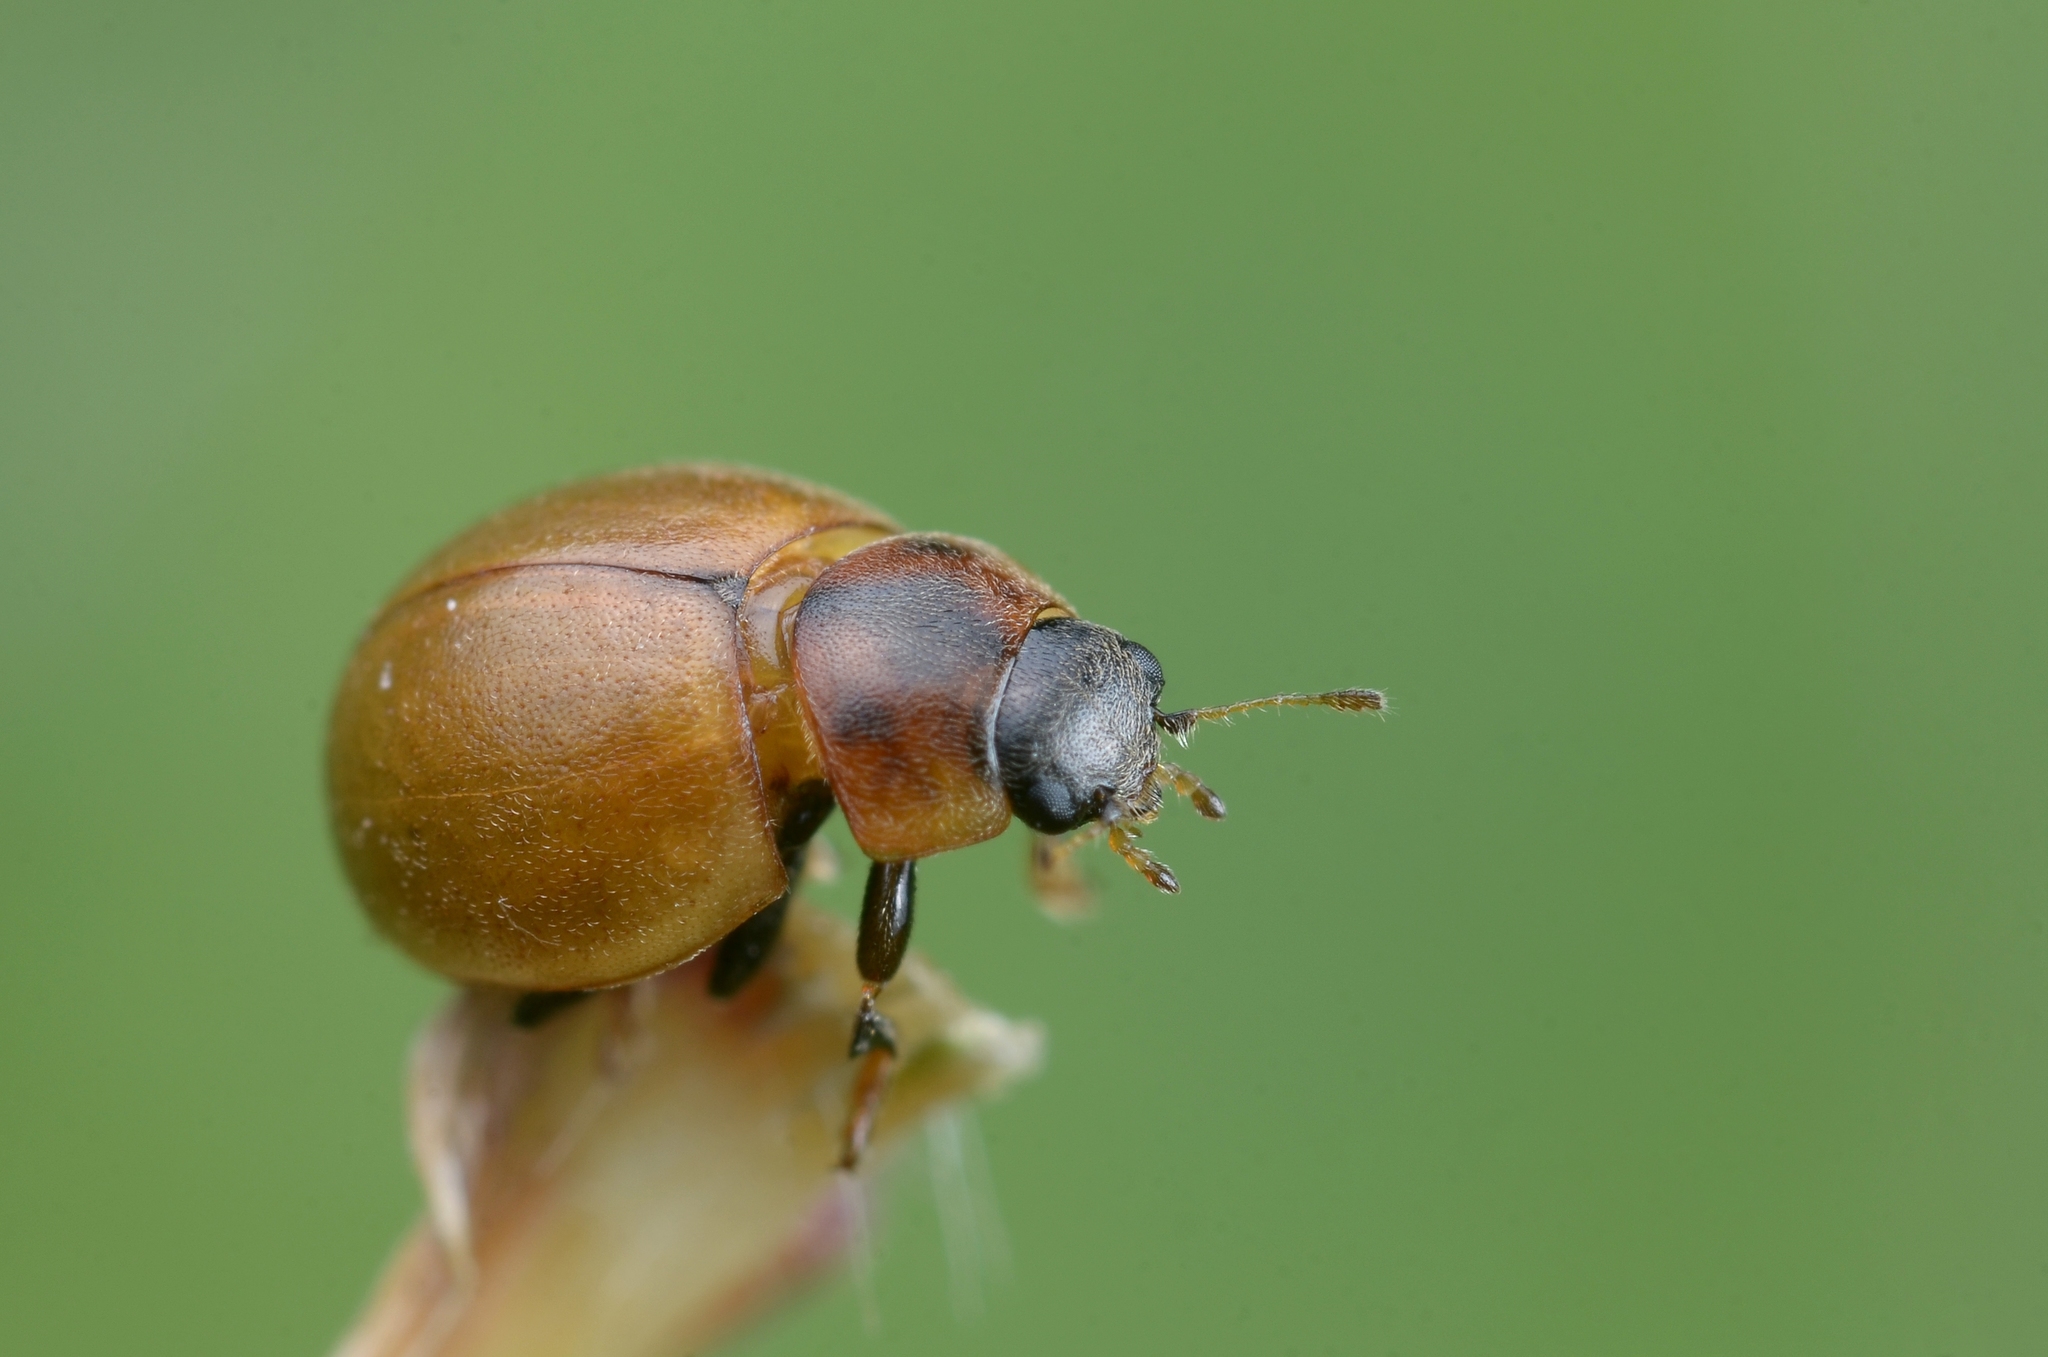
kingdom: Animalia
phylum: Arthropoda
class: Insecta
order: Coleoptera
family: Coccinellidae
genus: Cynegetis
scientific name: Cynegetis impunctata
